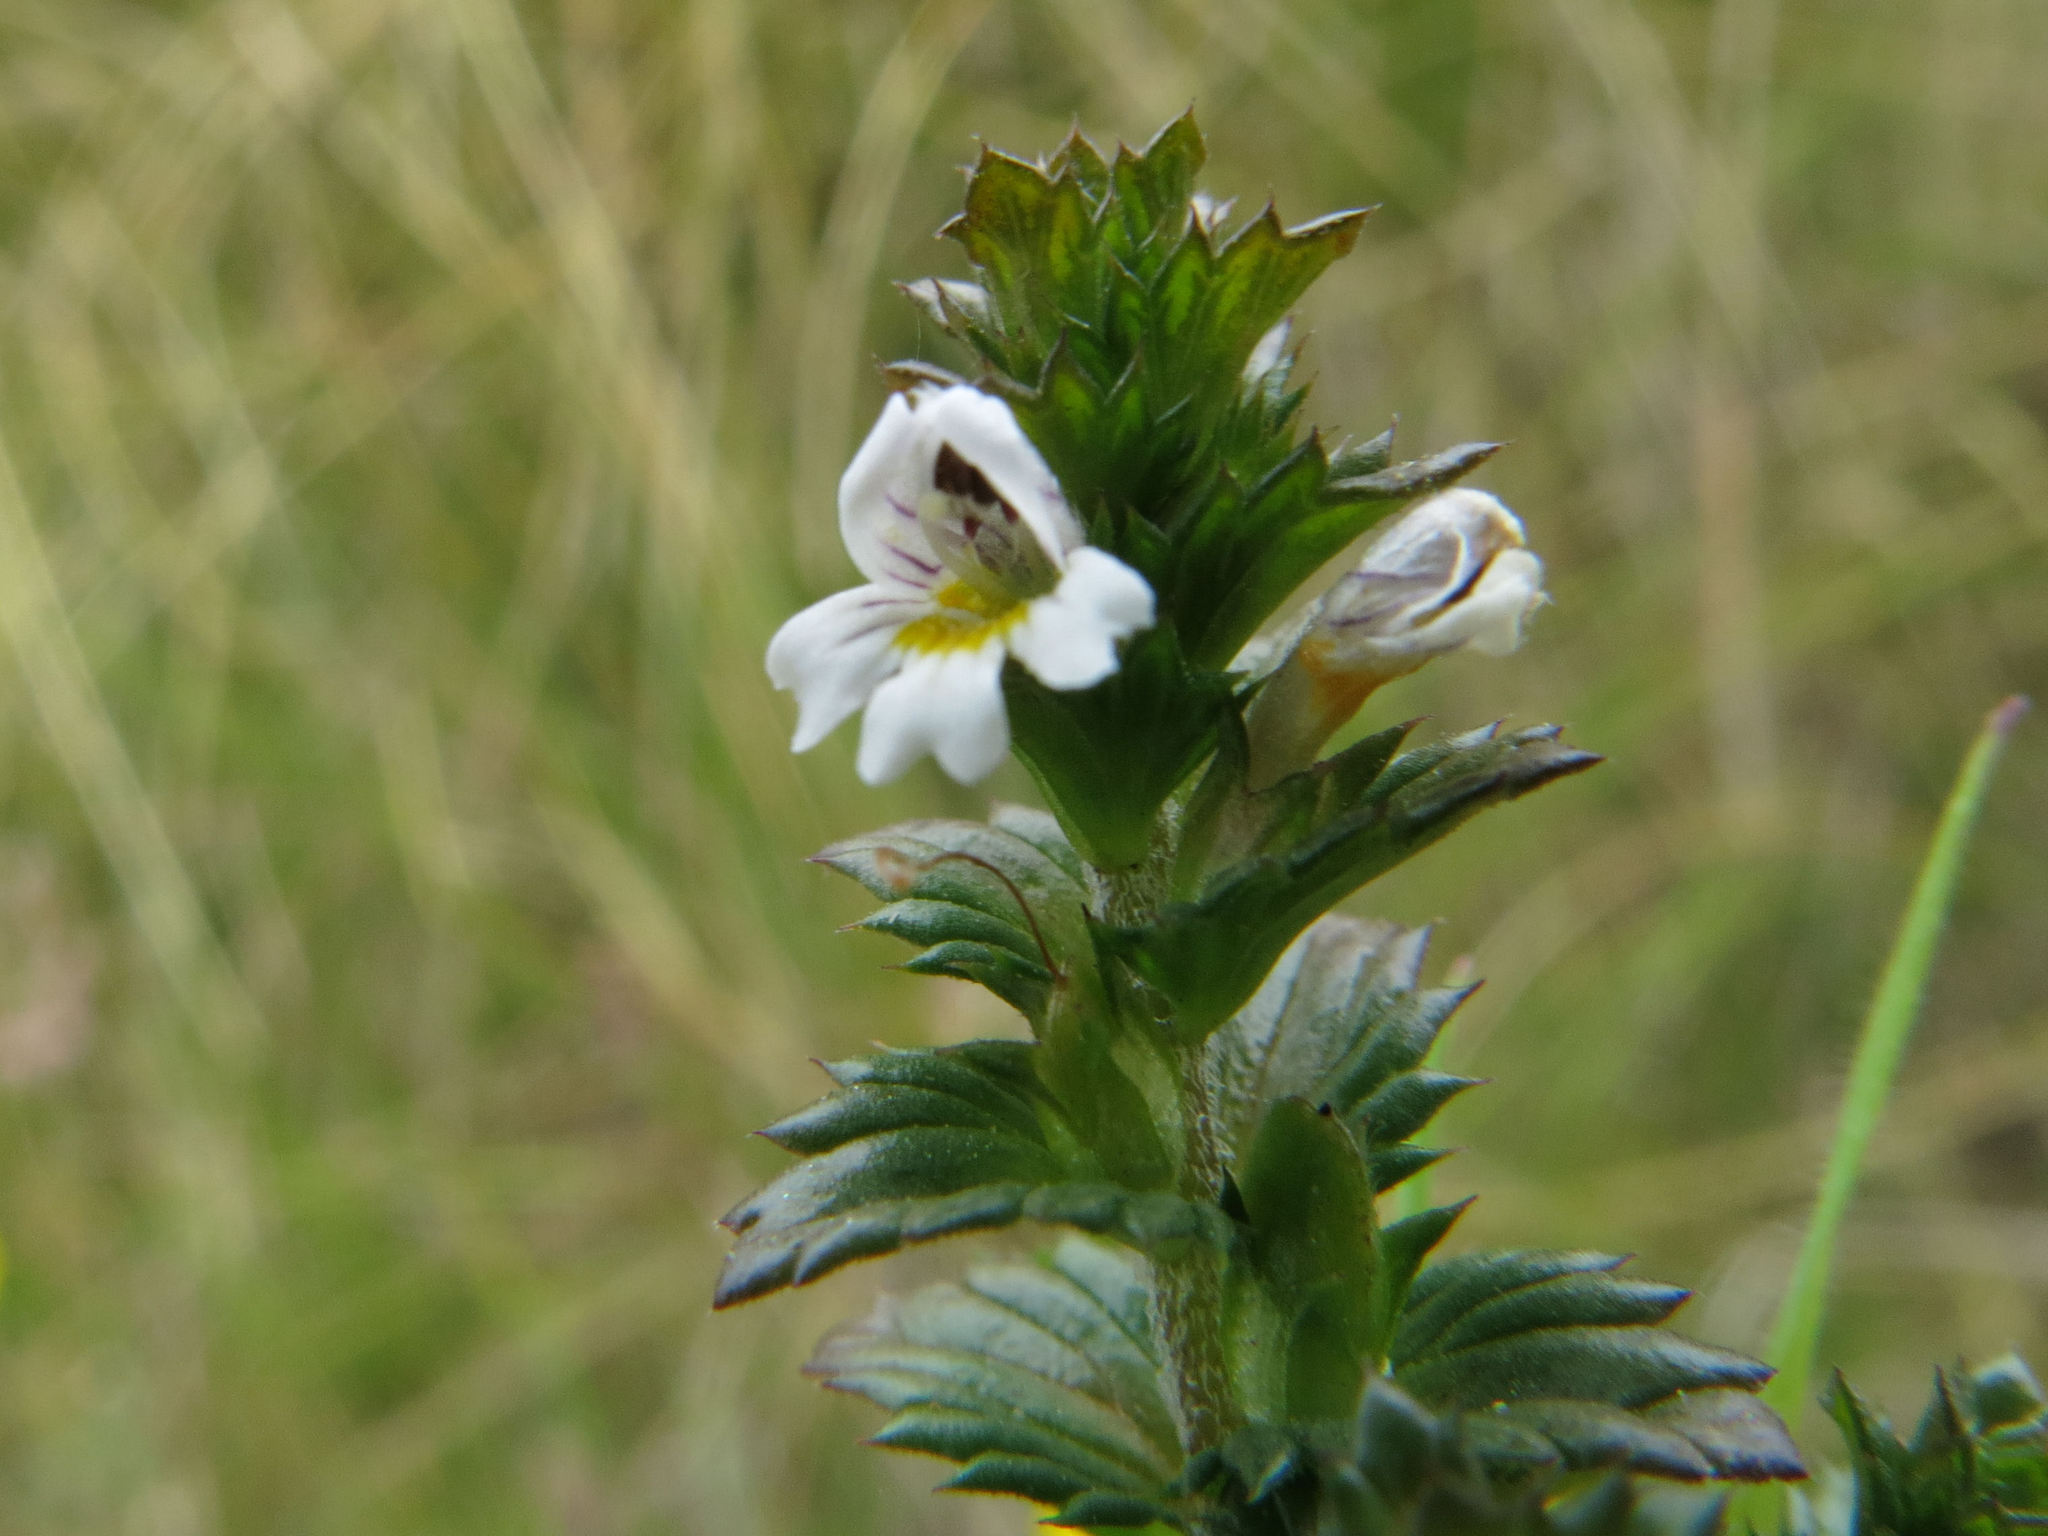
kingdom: Plantae
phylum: Tracheophyta
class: Magnoliopsida
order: Lamiales
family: Orobanchaceae
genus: Euphrasia
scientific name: Euphrasia nemorosa
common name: Common eyebright
